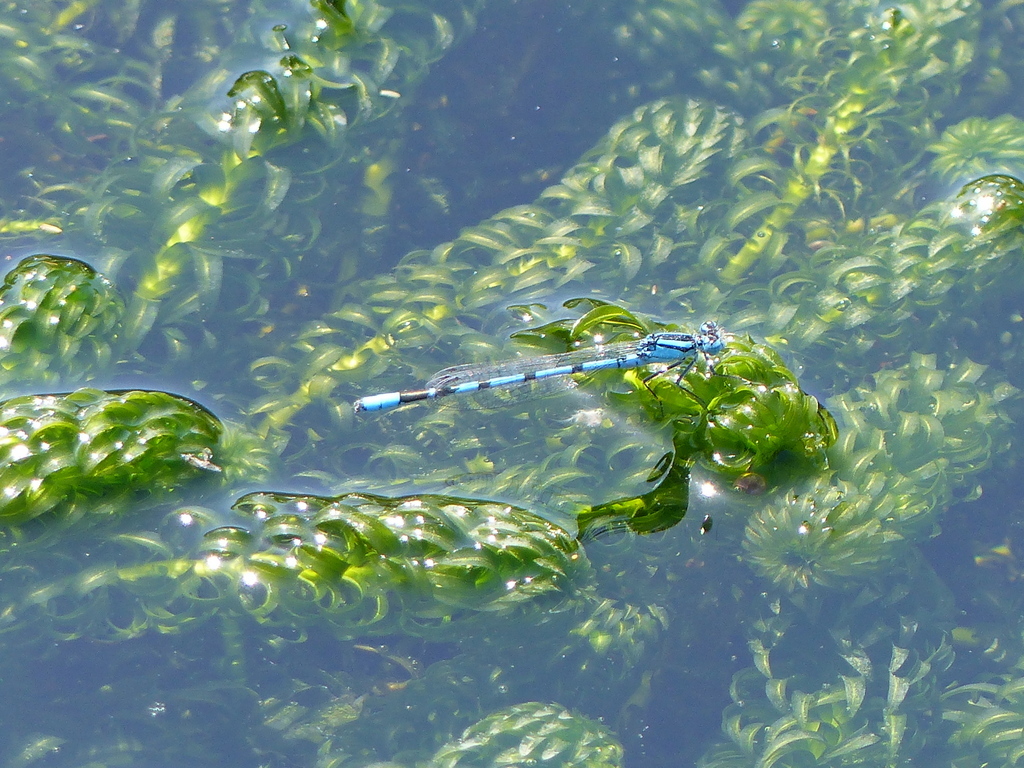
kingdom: Animalia
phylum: Arthropoda
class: Insecta
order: Odonata
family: Coenagrionidae
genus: Enallagma
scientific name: Enallagma cyathigerum
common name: Common blue damselfly
